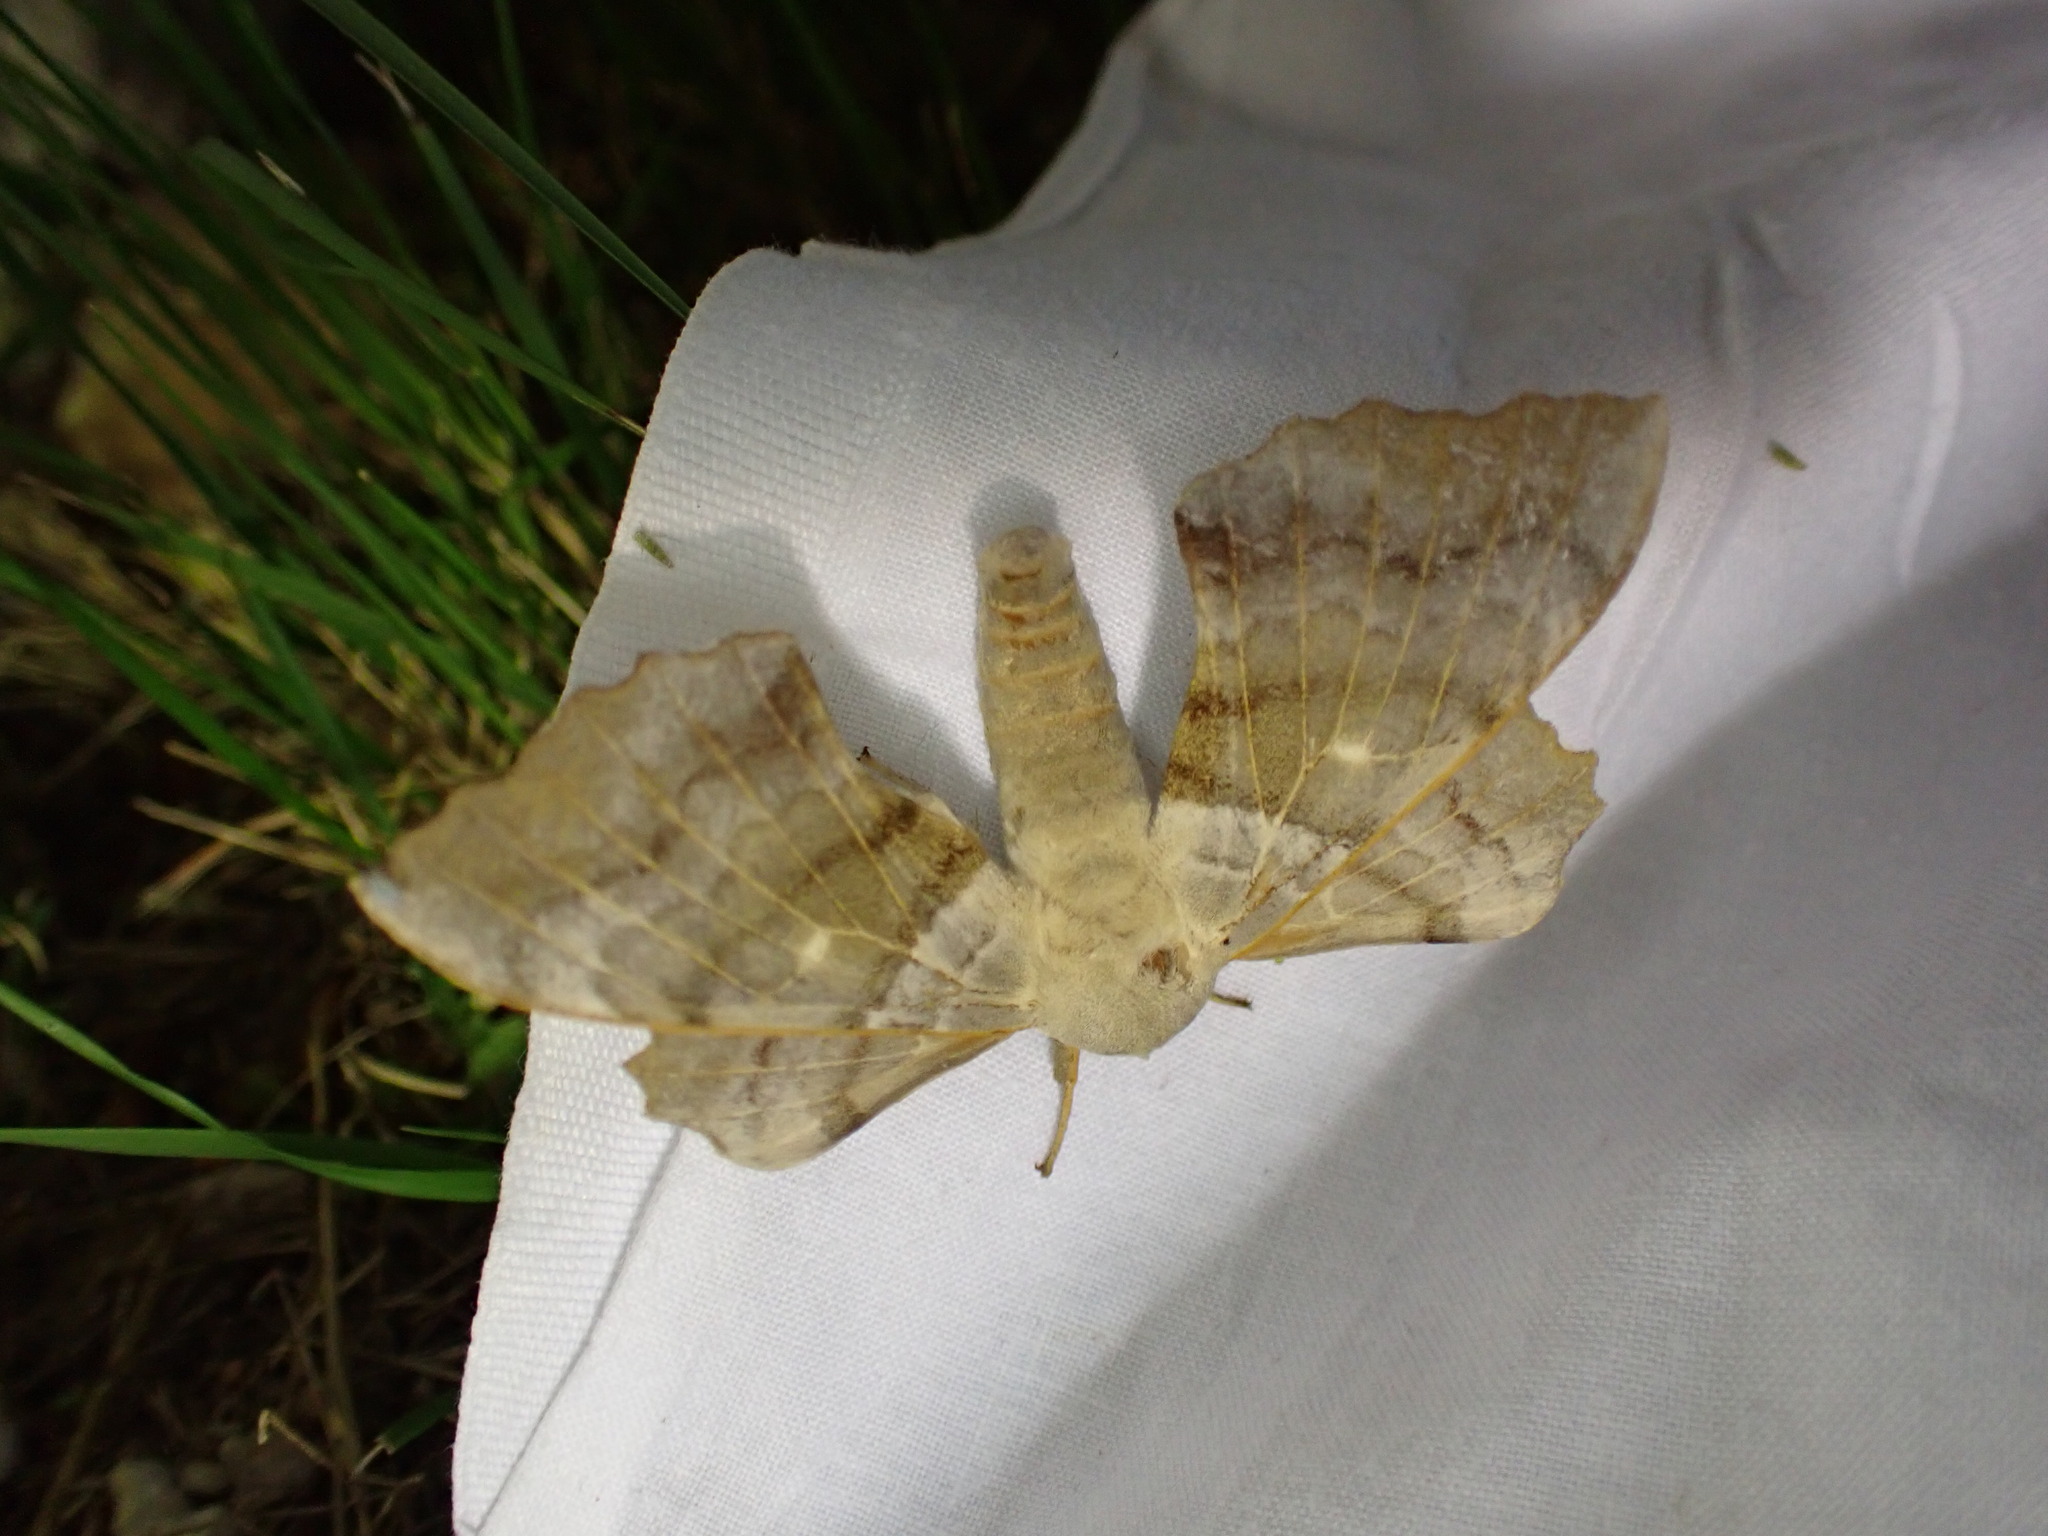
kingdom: Animalia
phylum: Arthropoda
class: Insecta
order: Lepidoptera
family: Sphingidae
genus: Laothoe
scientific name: Laothoe populi
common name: Poplar hawk-moth
